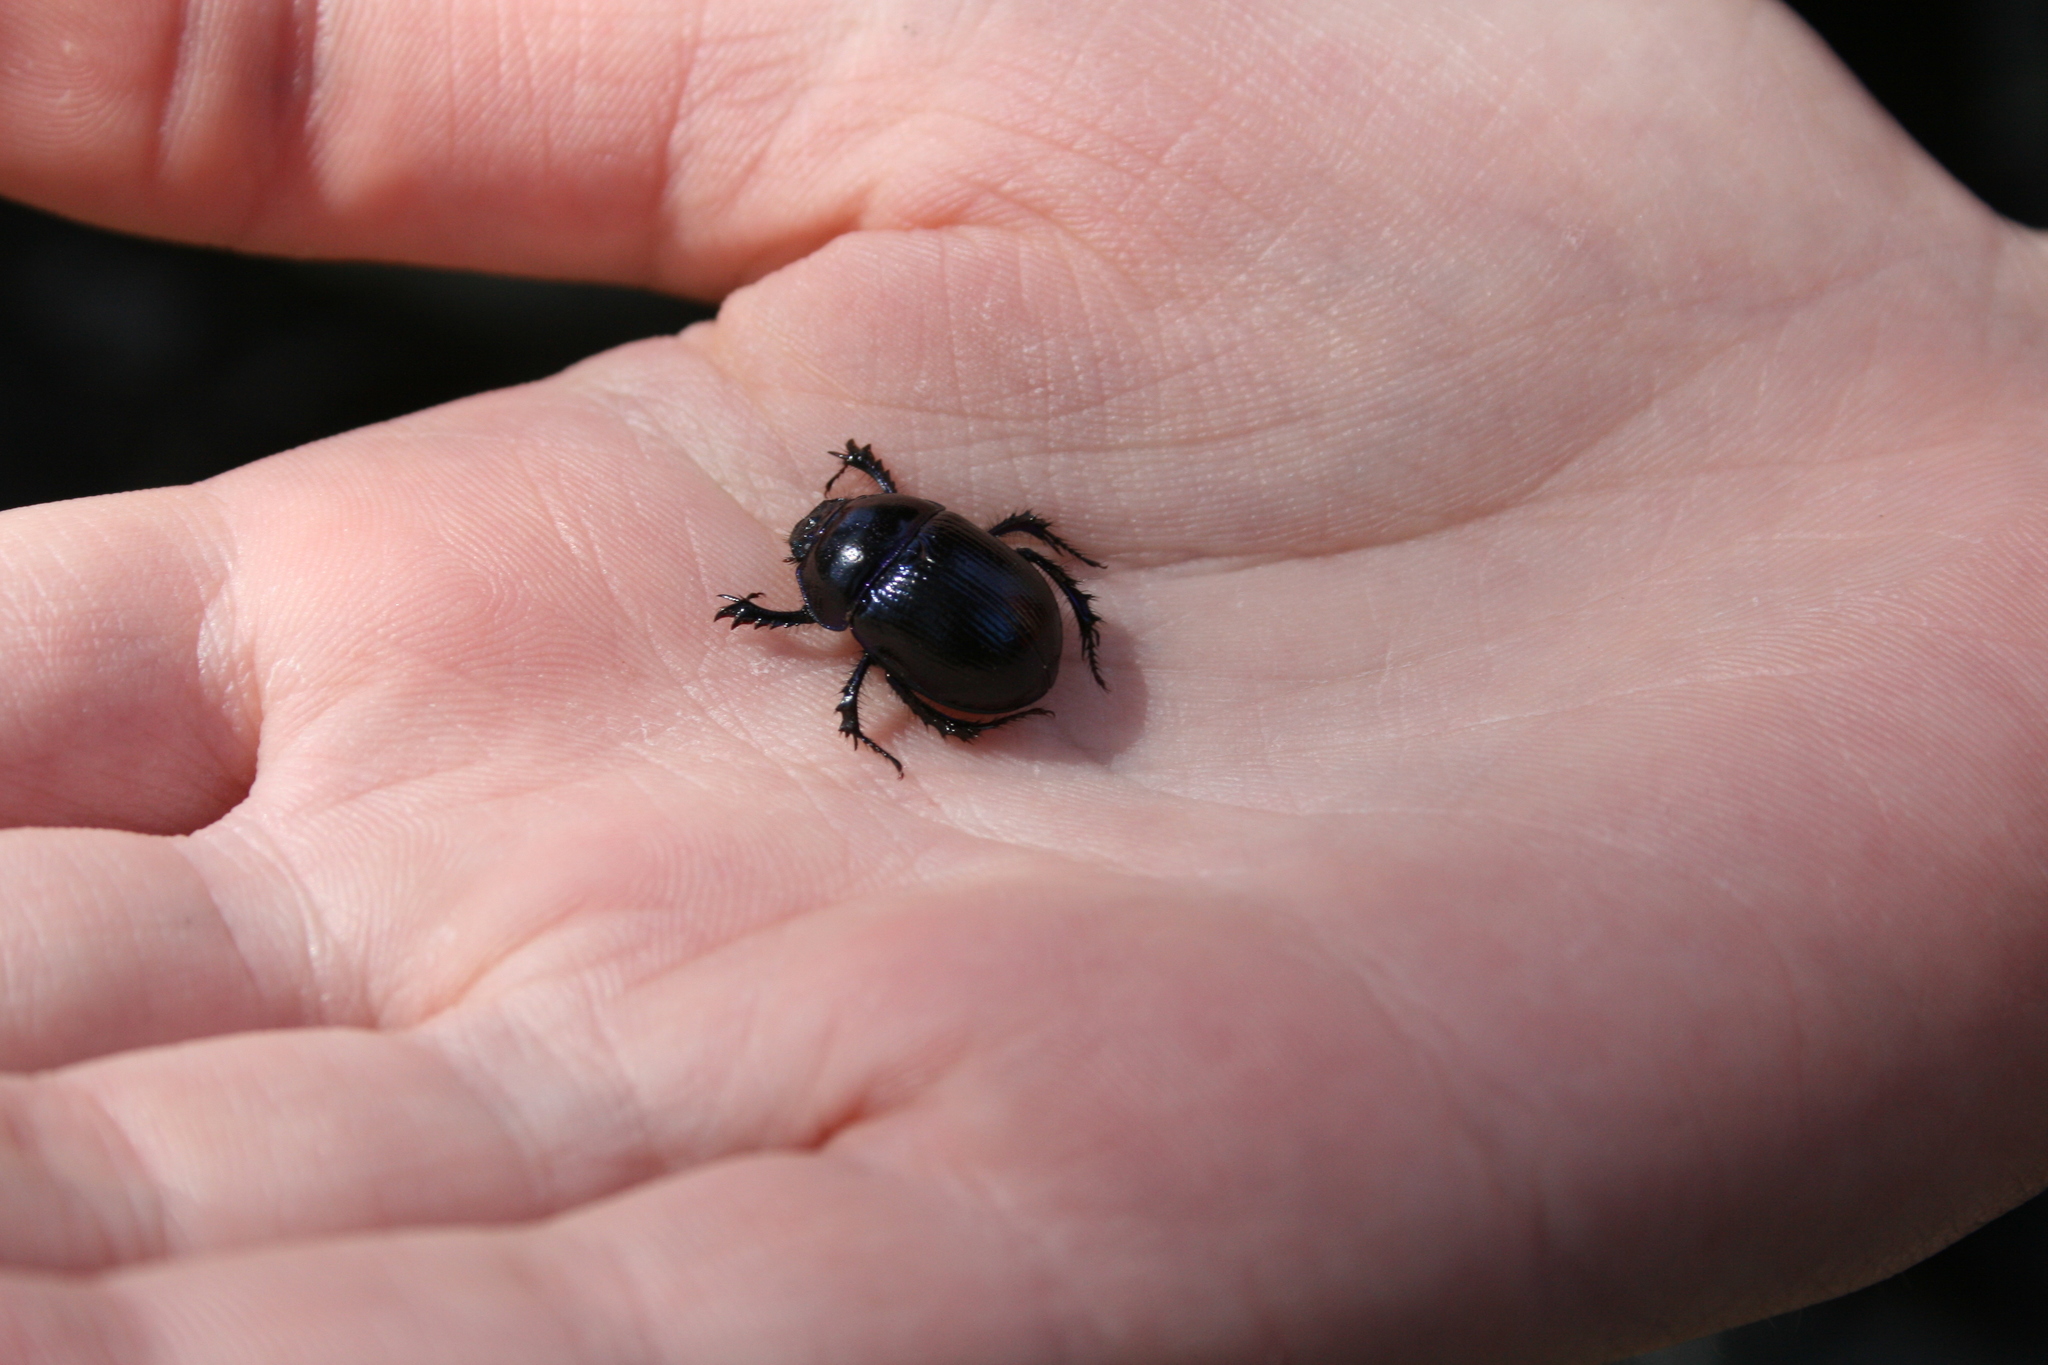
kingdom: Animalia
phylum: Arthropoda
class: Insecta
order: Coleoptera
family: Geotrupidae
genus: Anoplotrupes
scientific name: Anoplotrupes stercorosus
